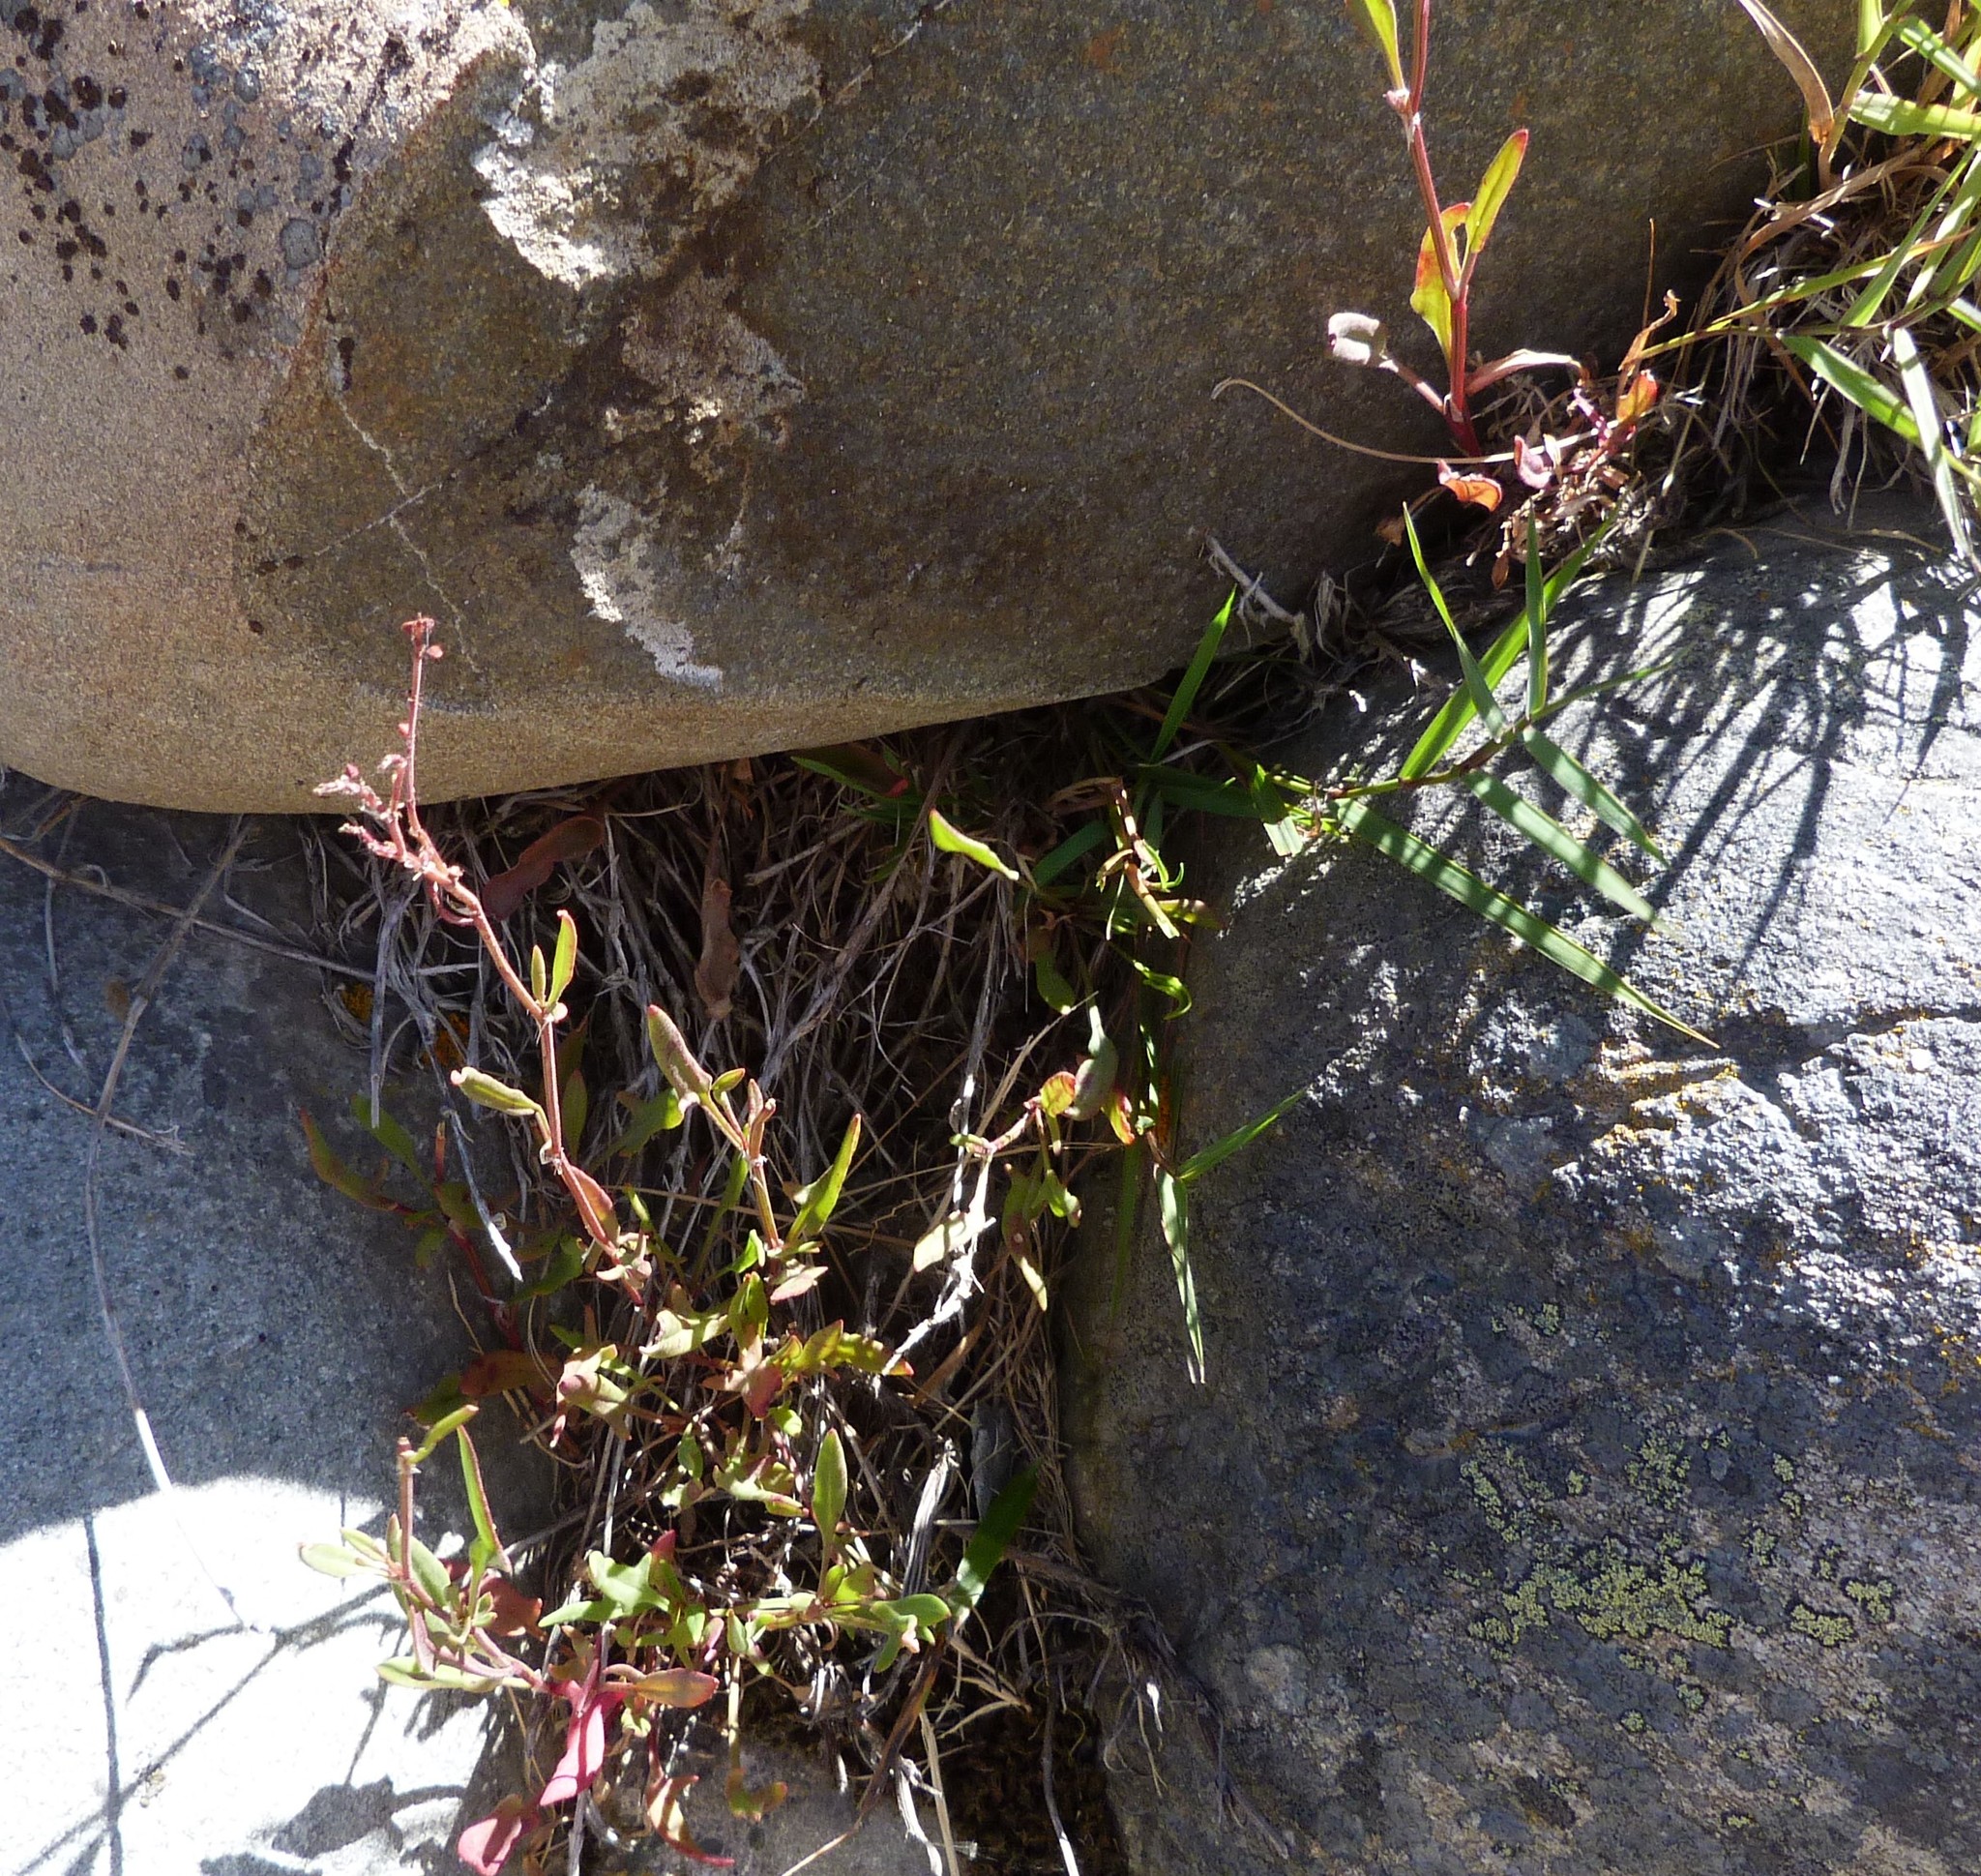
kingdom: Plantae
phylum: Tracheophyta
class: Magnoliopsida
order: Caryophyllales
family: Polygonaceae
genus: Rumex
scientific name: Rumex acetosella
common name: Common sheep sorrel
